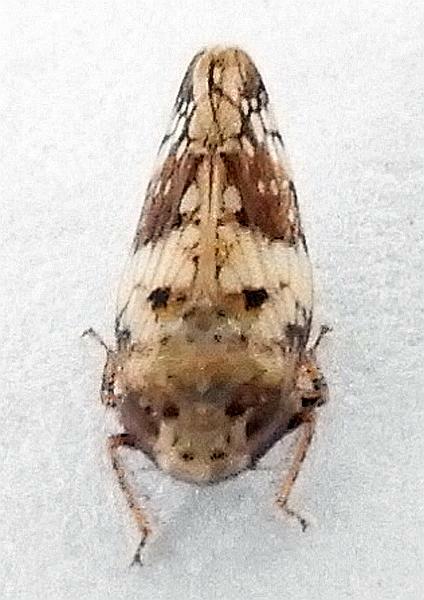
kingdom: Animalia
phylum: Arthropoda
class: Insecta
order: Hemiptera
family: Cicadellidae
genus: Menosoma
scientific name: Menosoma cinctum
